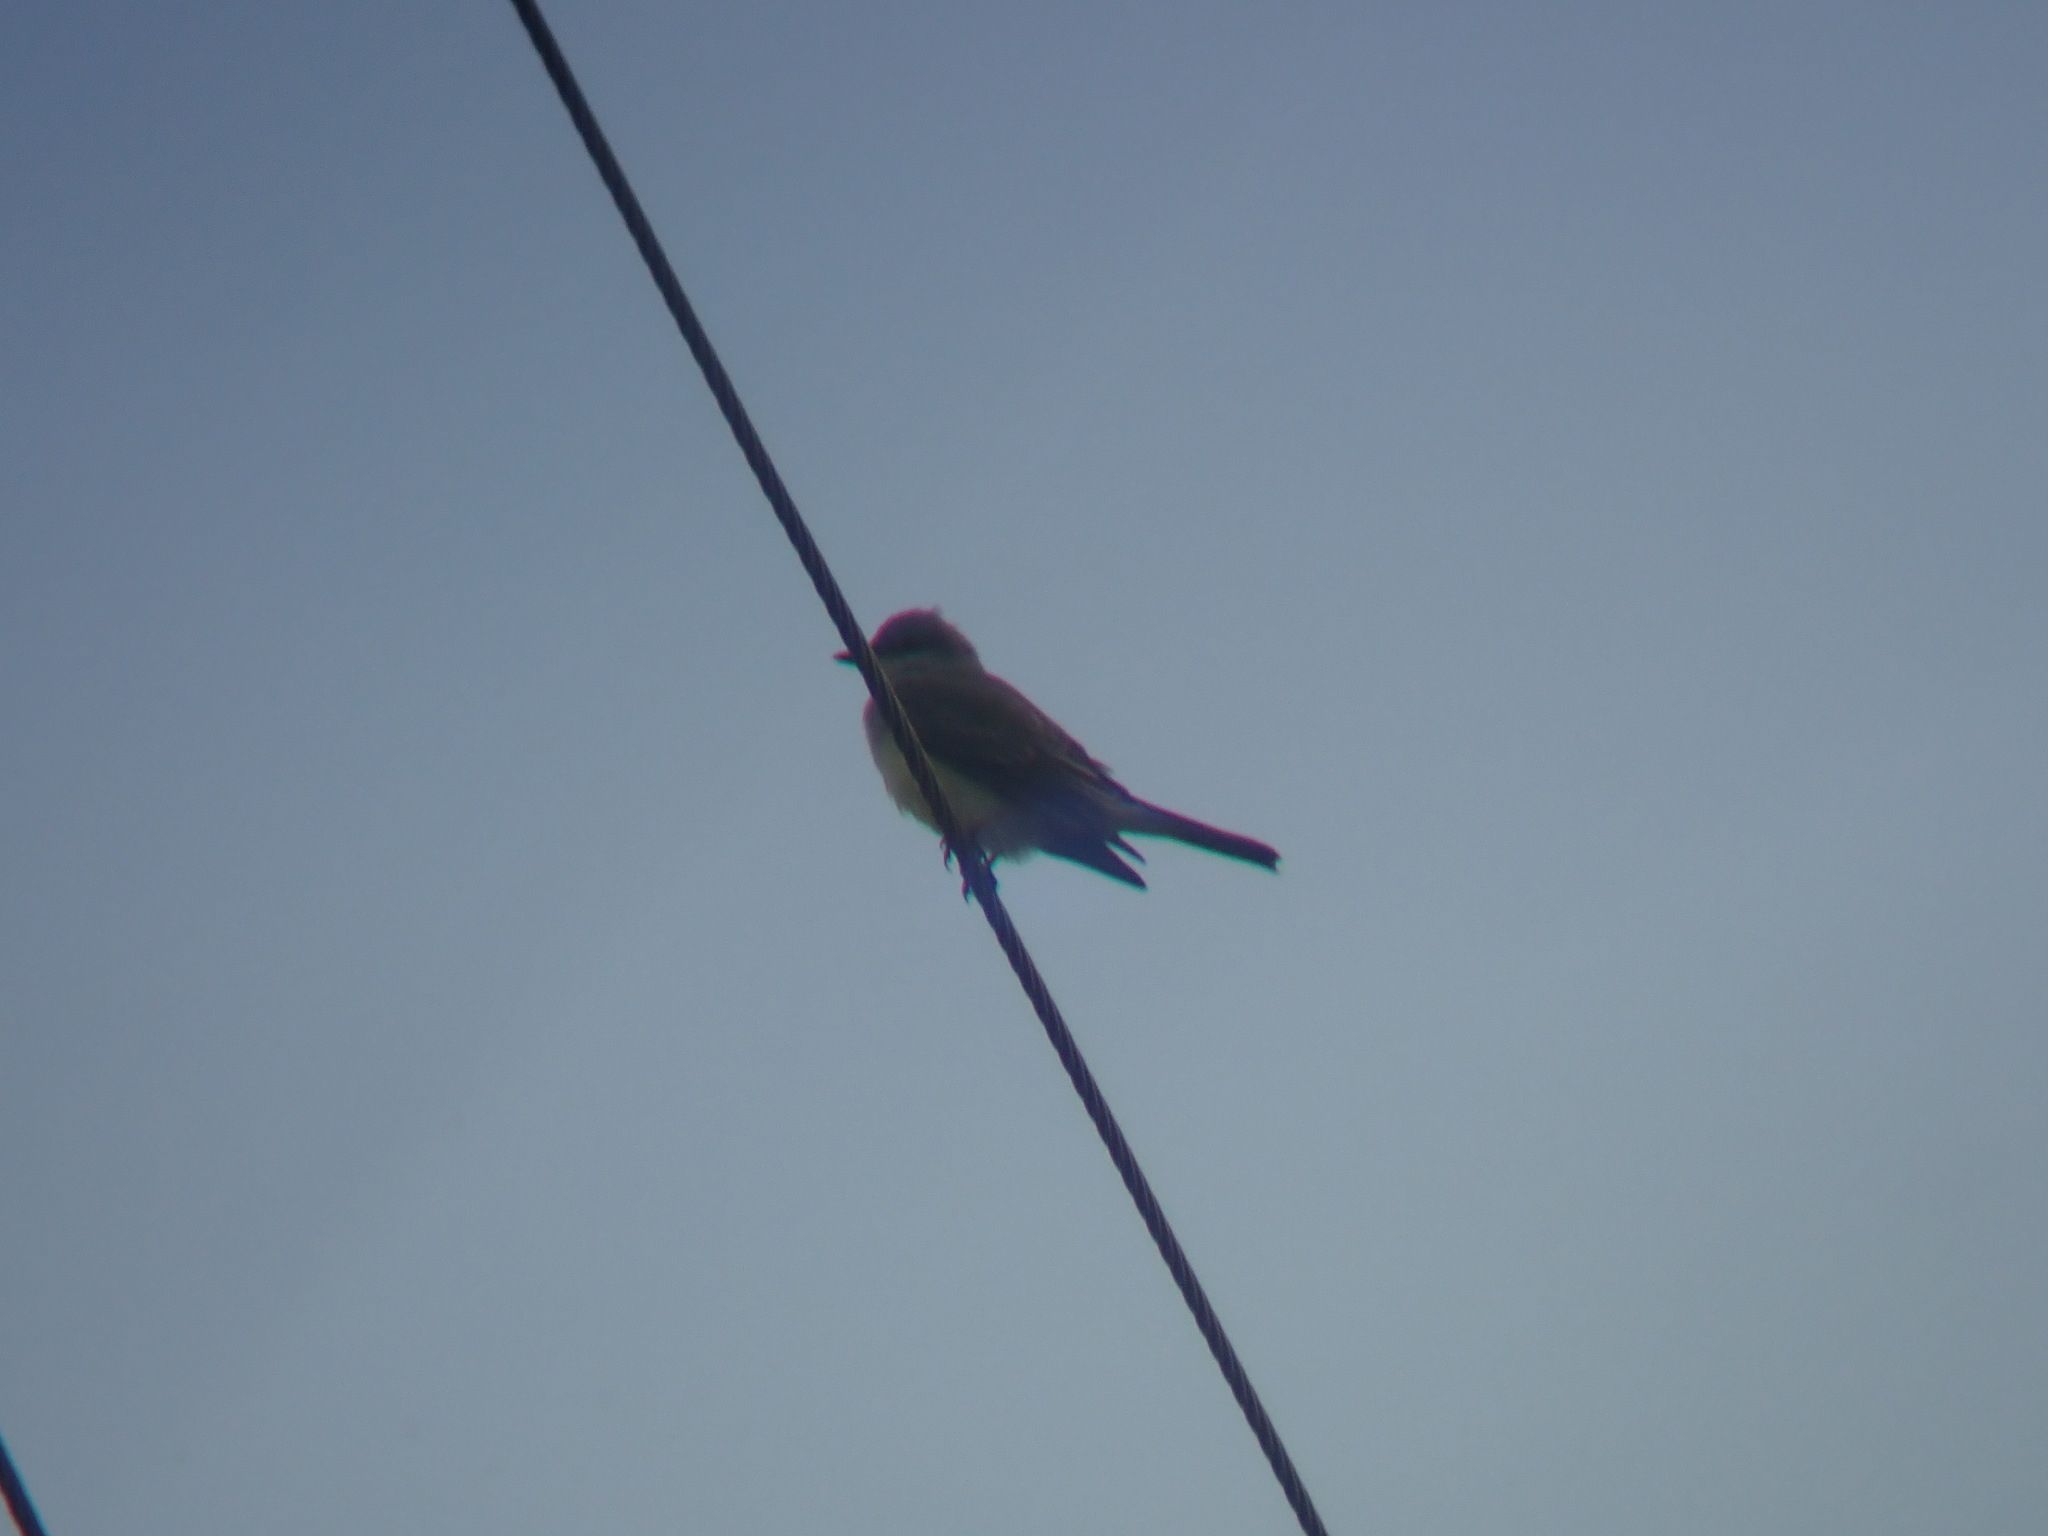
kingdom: Animalia
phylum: Chordata
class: Aves
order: Passeriformes
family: Tyrannidae
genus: Tyrannus
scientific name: Tyrannus verticalis
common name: Western kingbird
